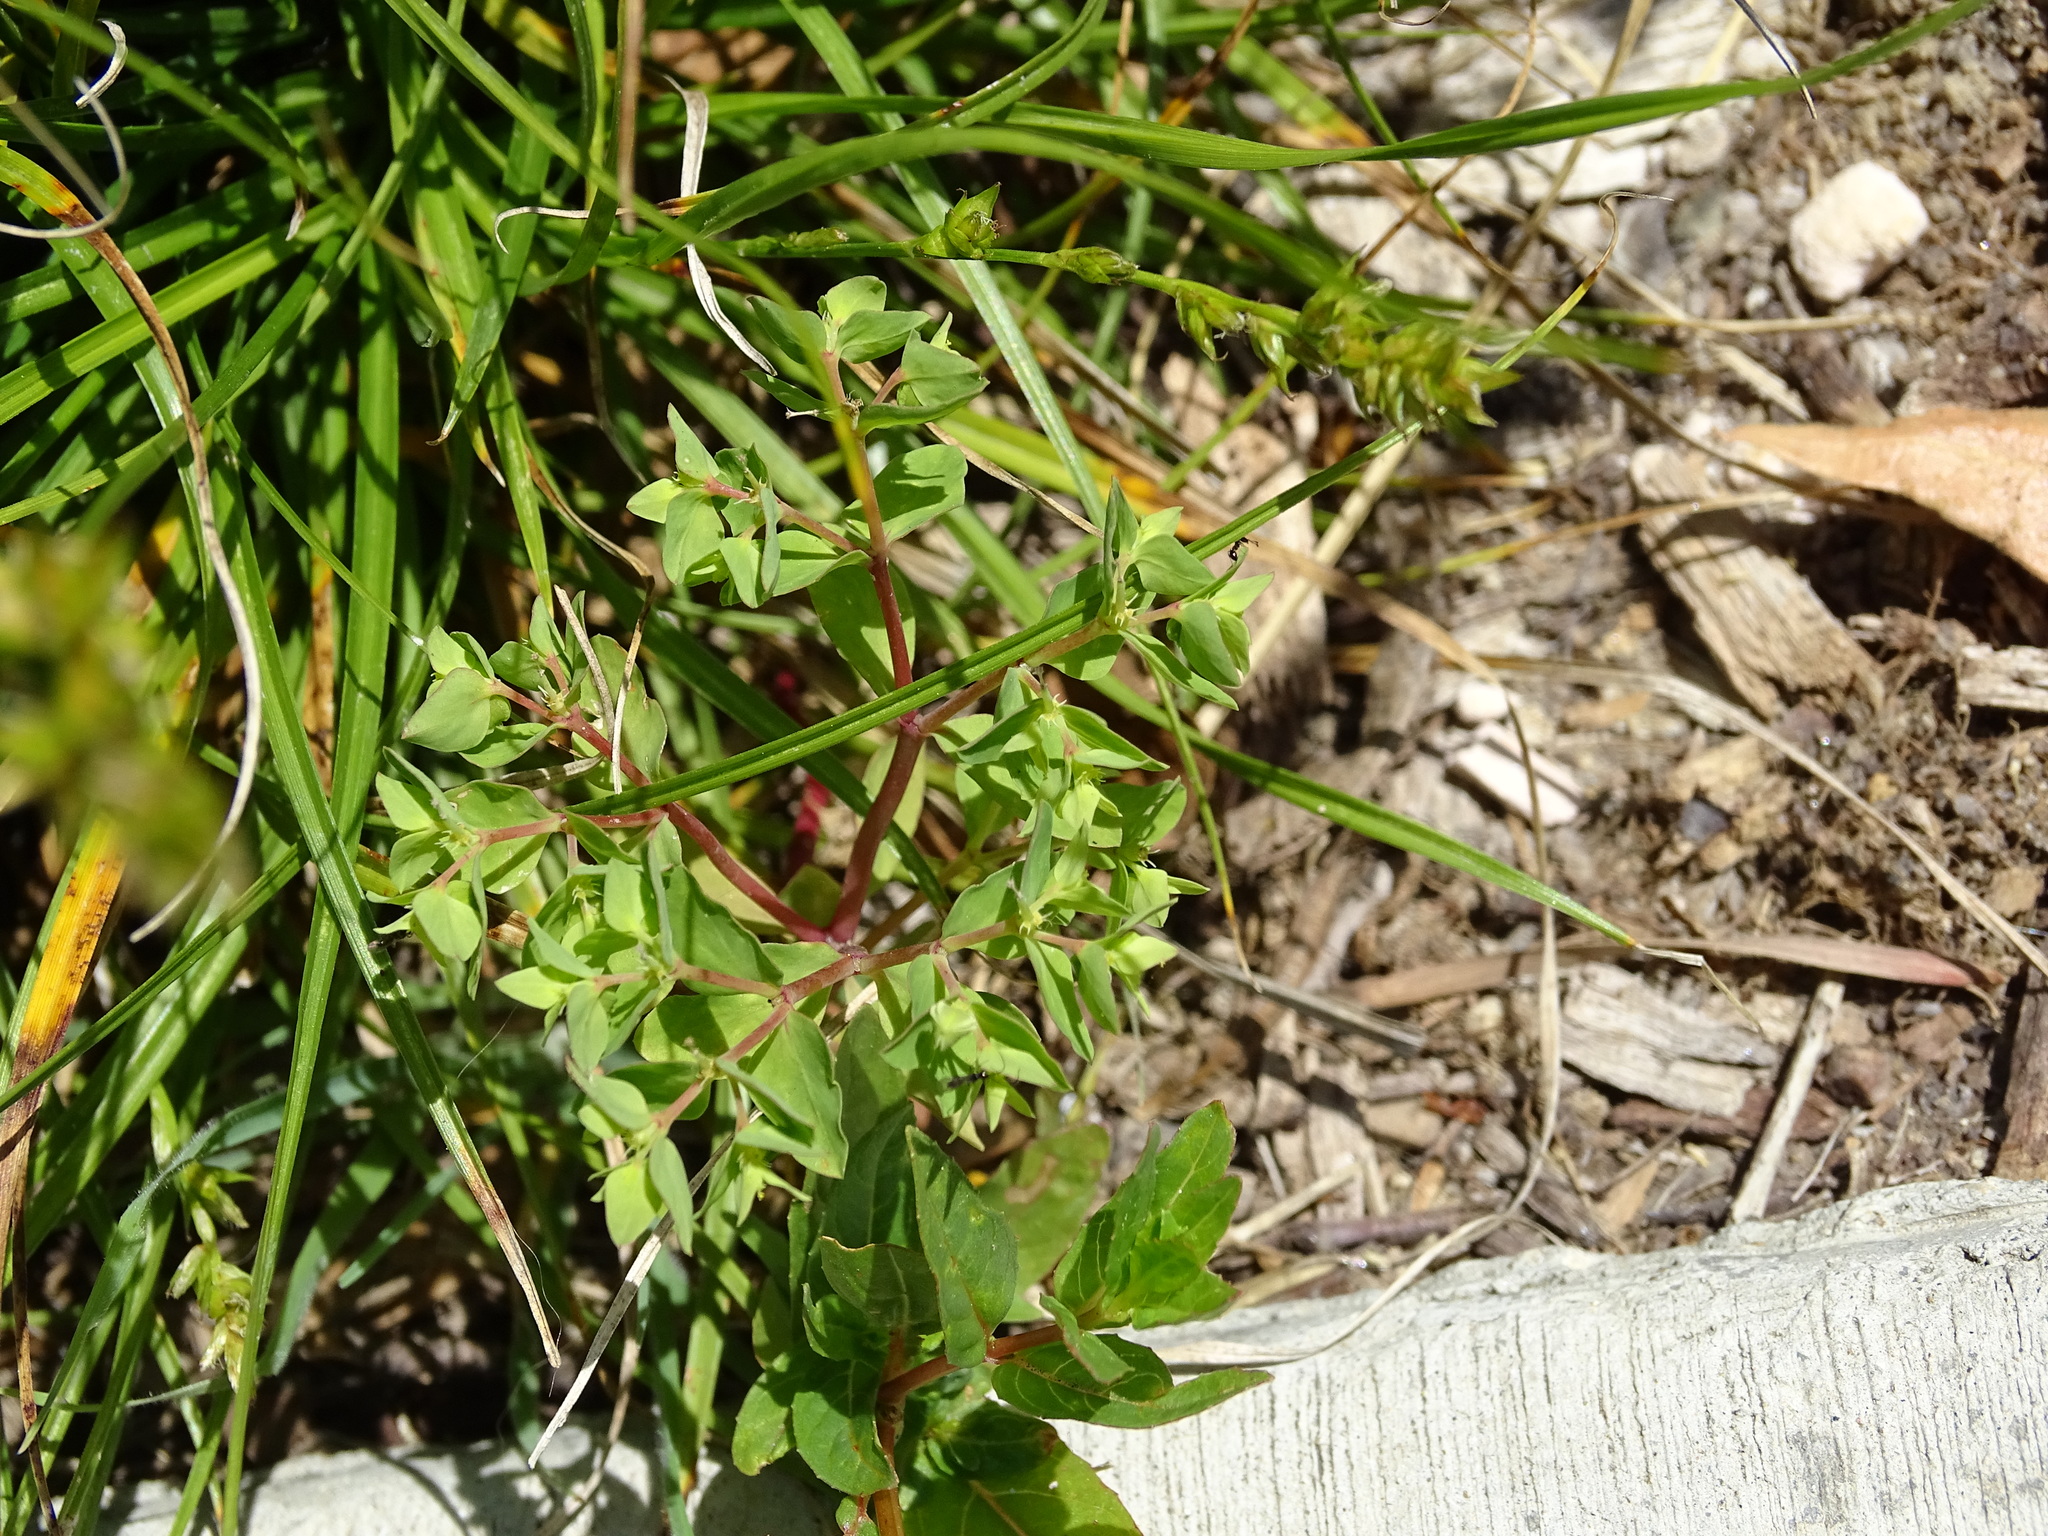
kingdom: Plantae
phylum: Tracheophyta
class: Magnoliopsida
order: Malpighiales
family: Euphorbiaceae
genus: Euphorbia
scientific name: Euphorbia peplus
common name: Petty spurge
